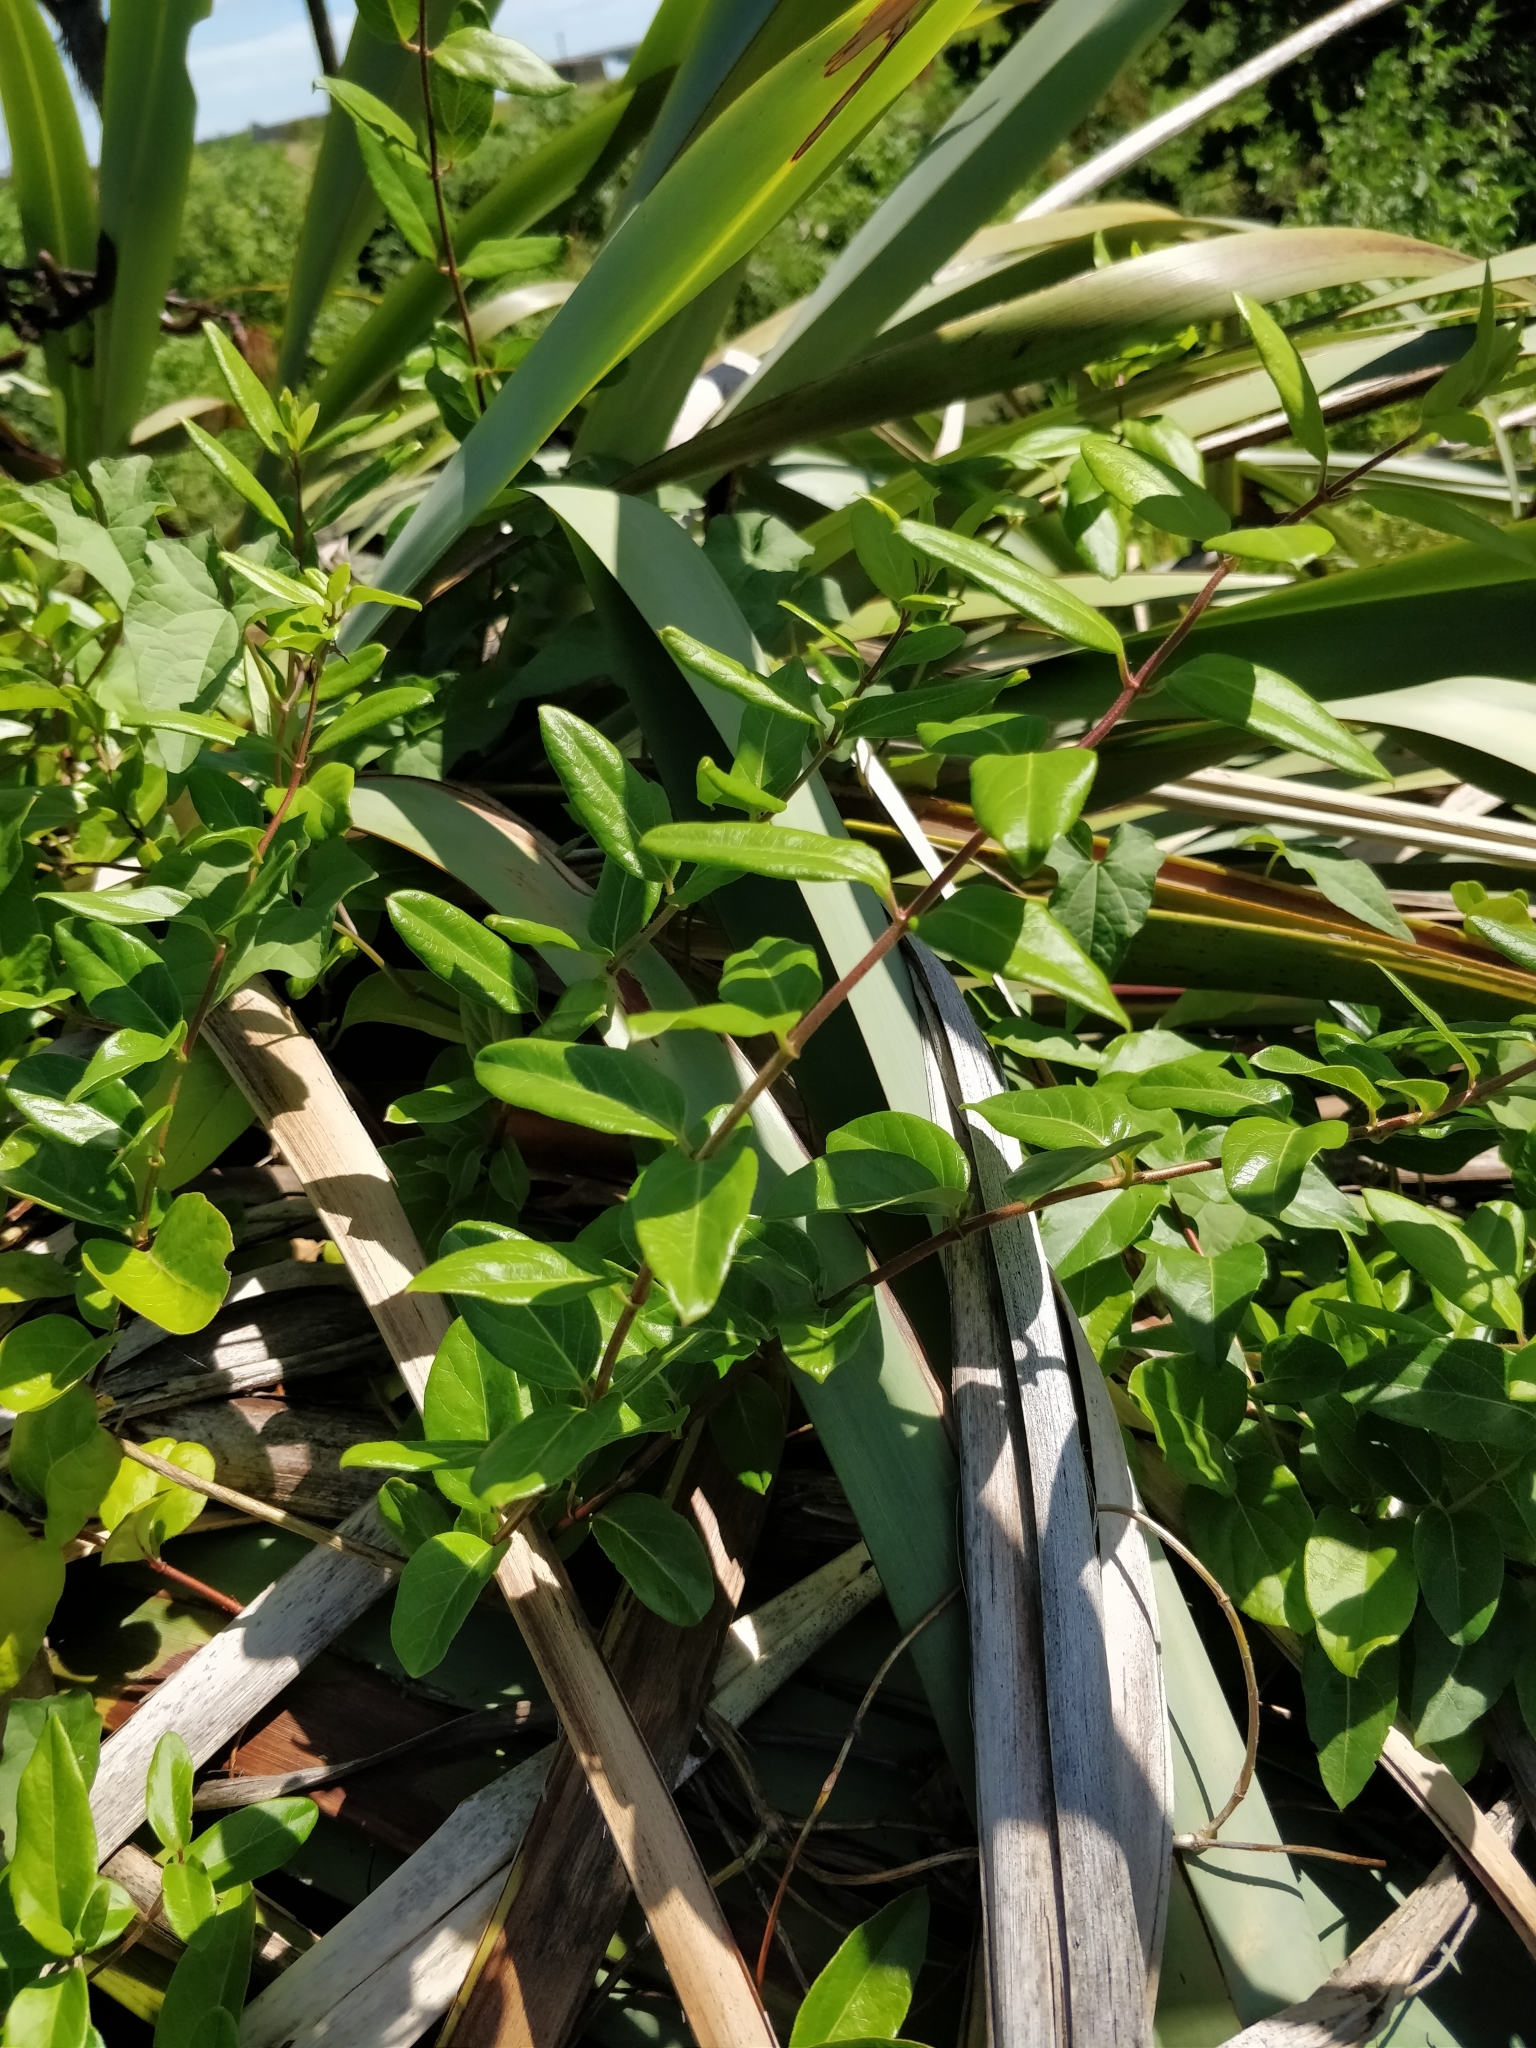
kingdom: Plantae
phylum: Tracheophyta
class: Magnoliopsida
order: Dipsacales
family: Caprifoliaceae
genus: Lonicera
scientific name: Lonicera japonica
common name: Japanese honeysuckle
